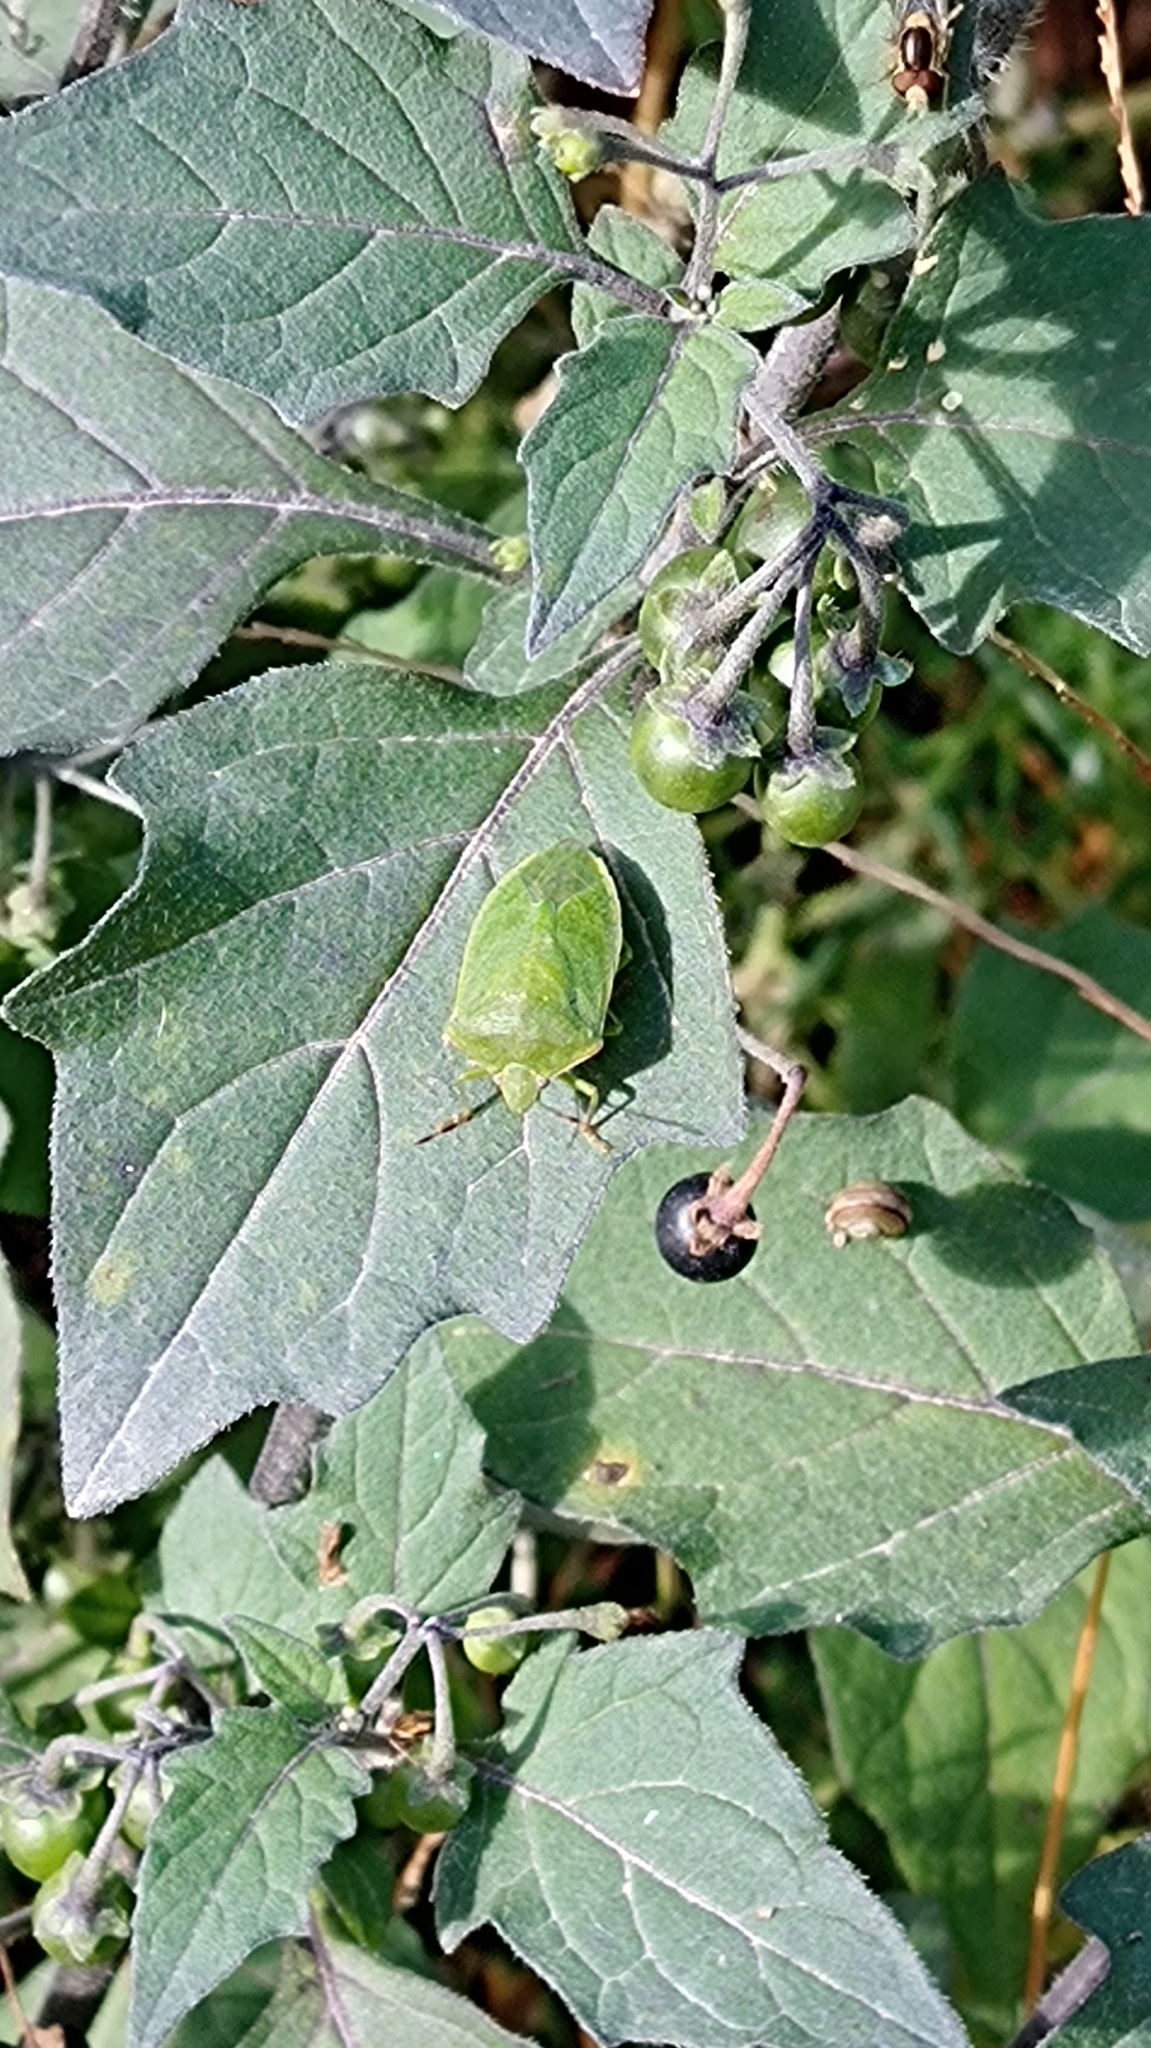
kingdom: Animalia
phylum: Arthropoda
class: Insecta
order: Hemiptera
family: Pentatomidae
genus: Nezara
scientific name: Nezara viridula
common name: Southern green stink bug
